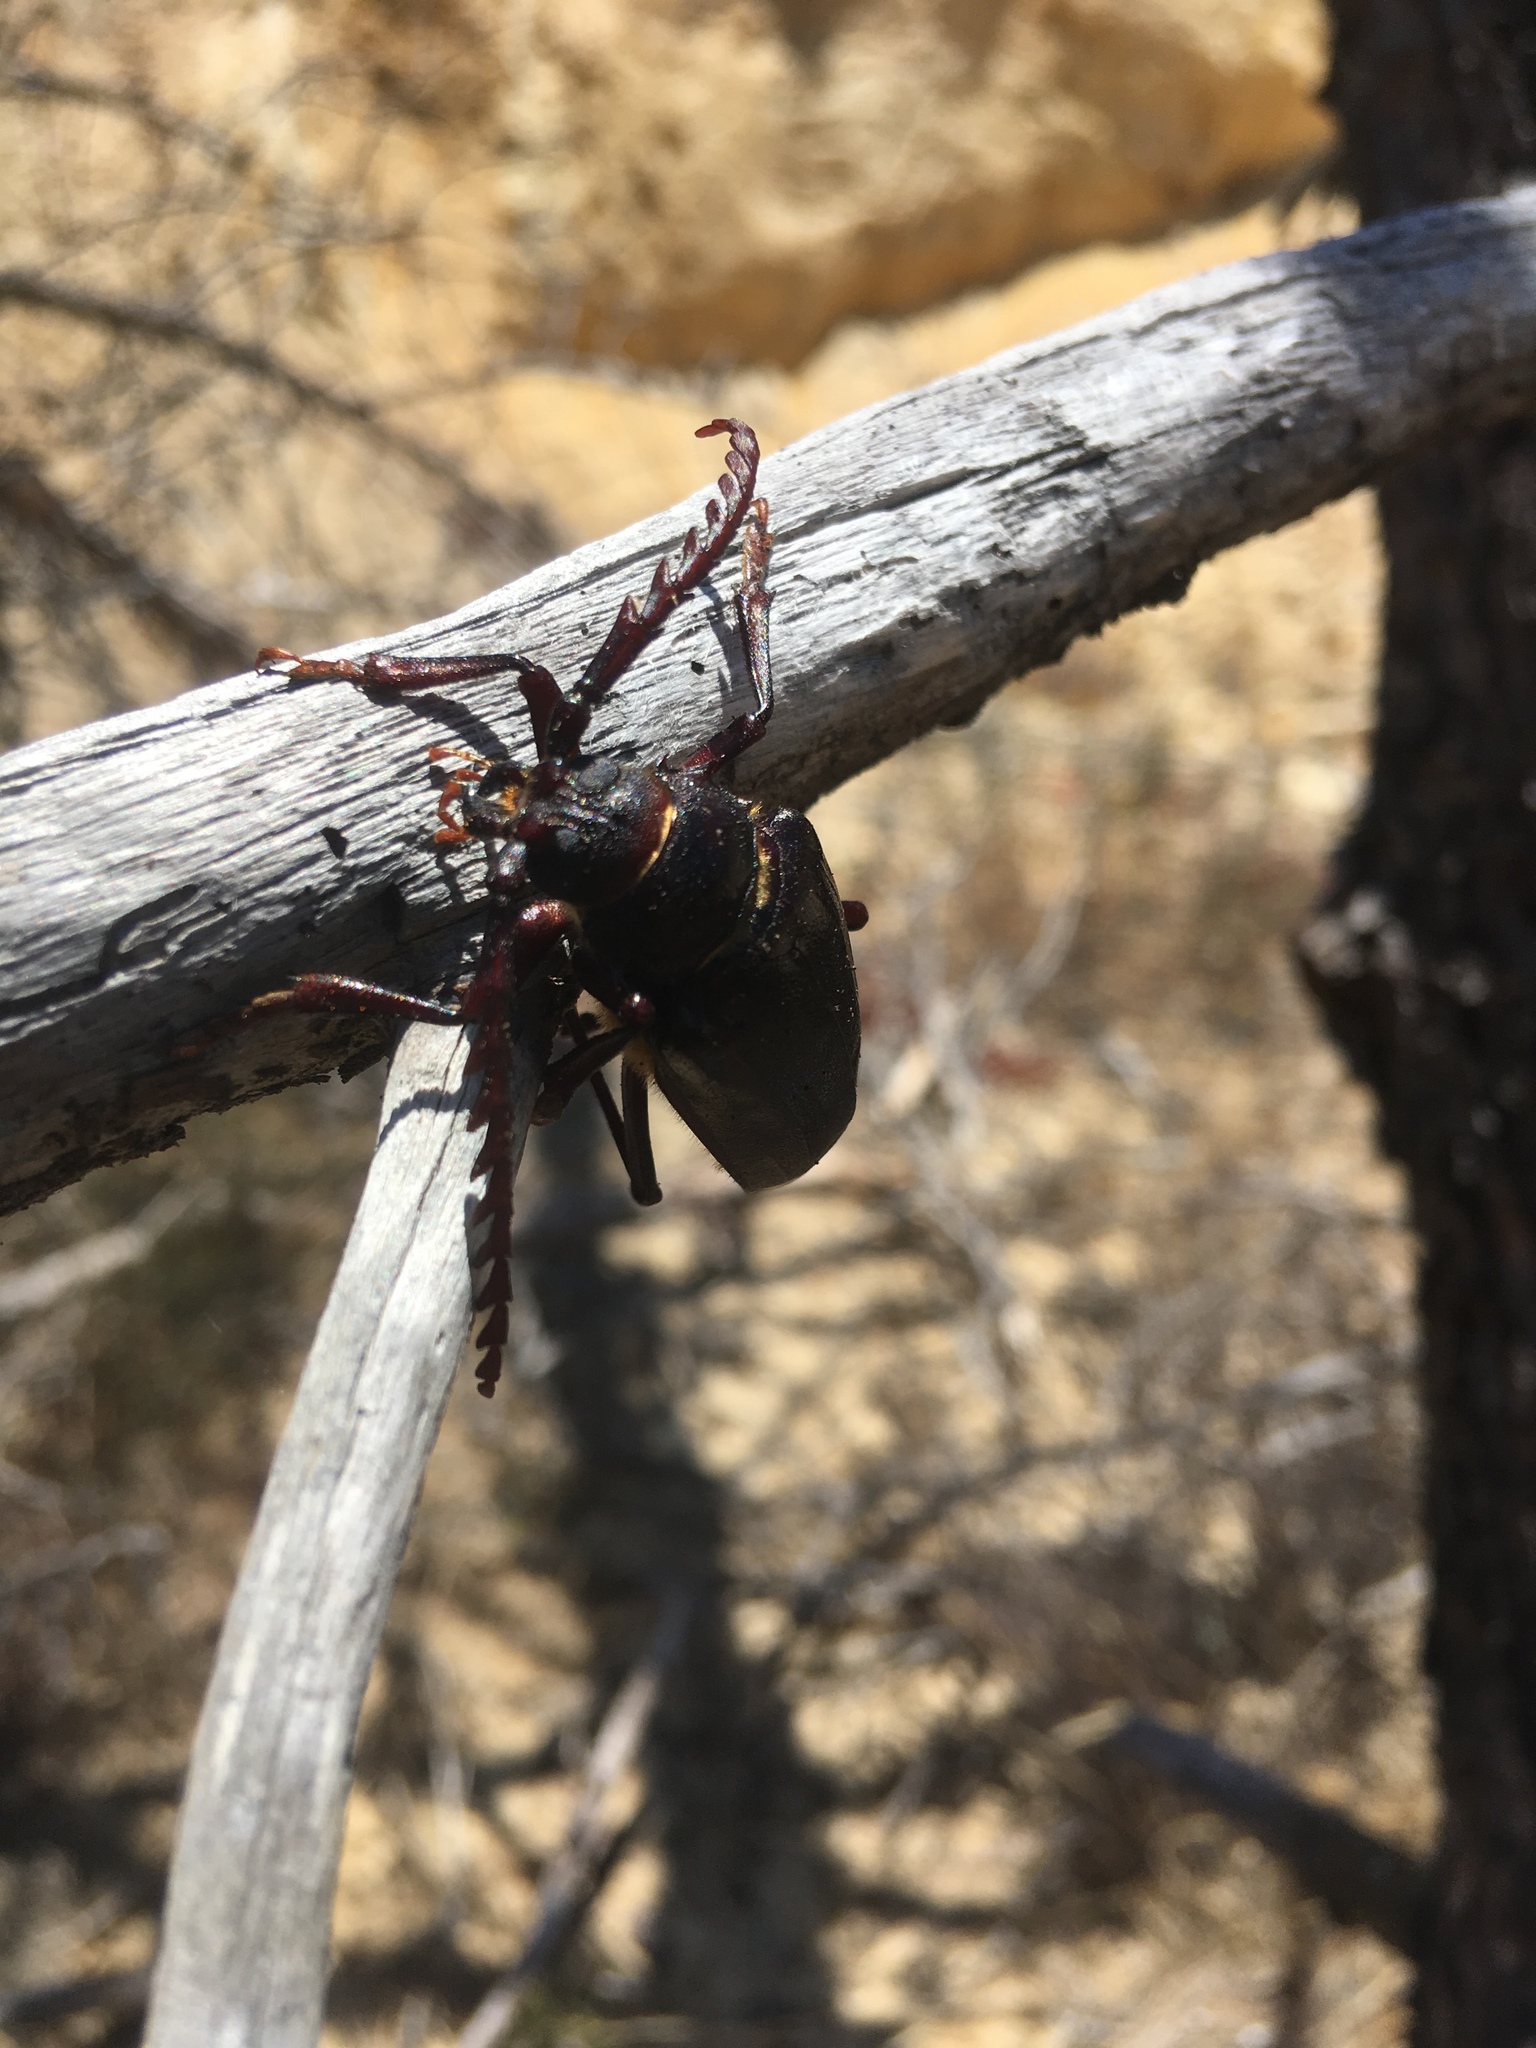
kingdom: Animalia
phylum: Arthropoda
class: Insecta
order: Coleoptera
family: Cerambycidae
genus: Prionus
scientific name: Prionus californicus
